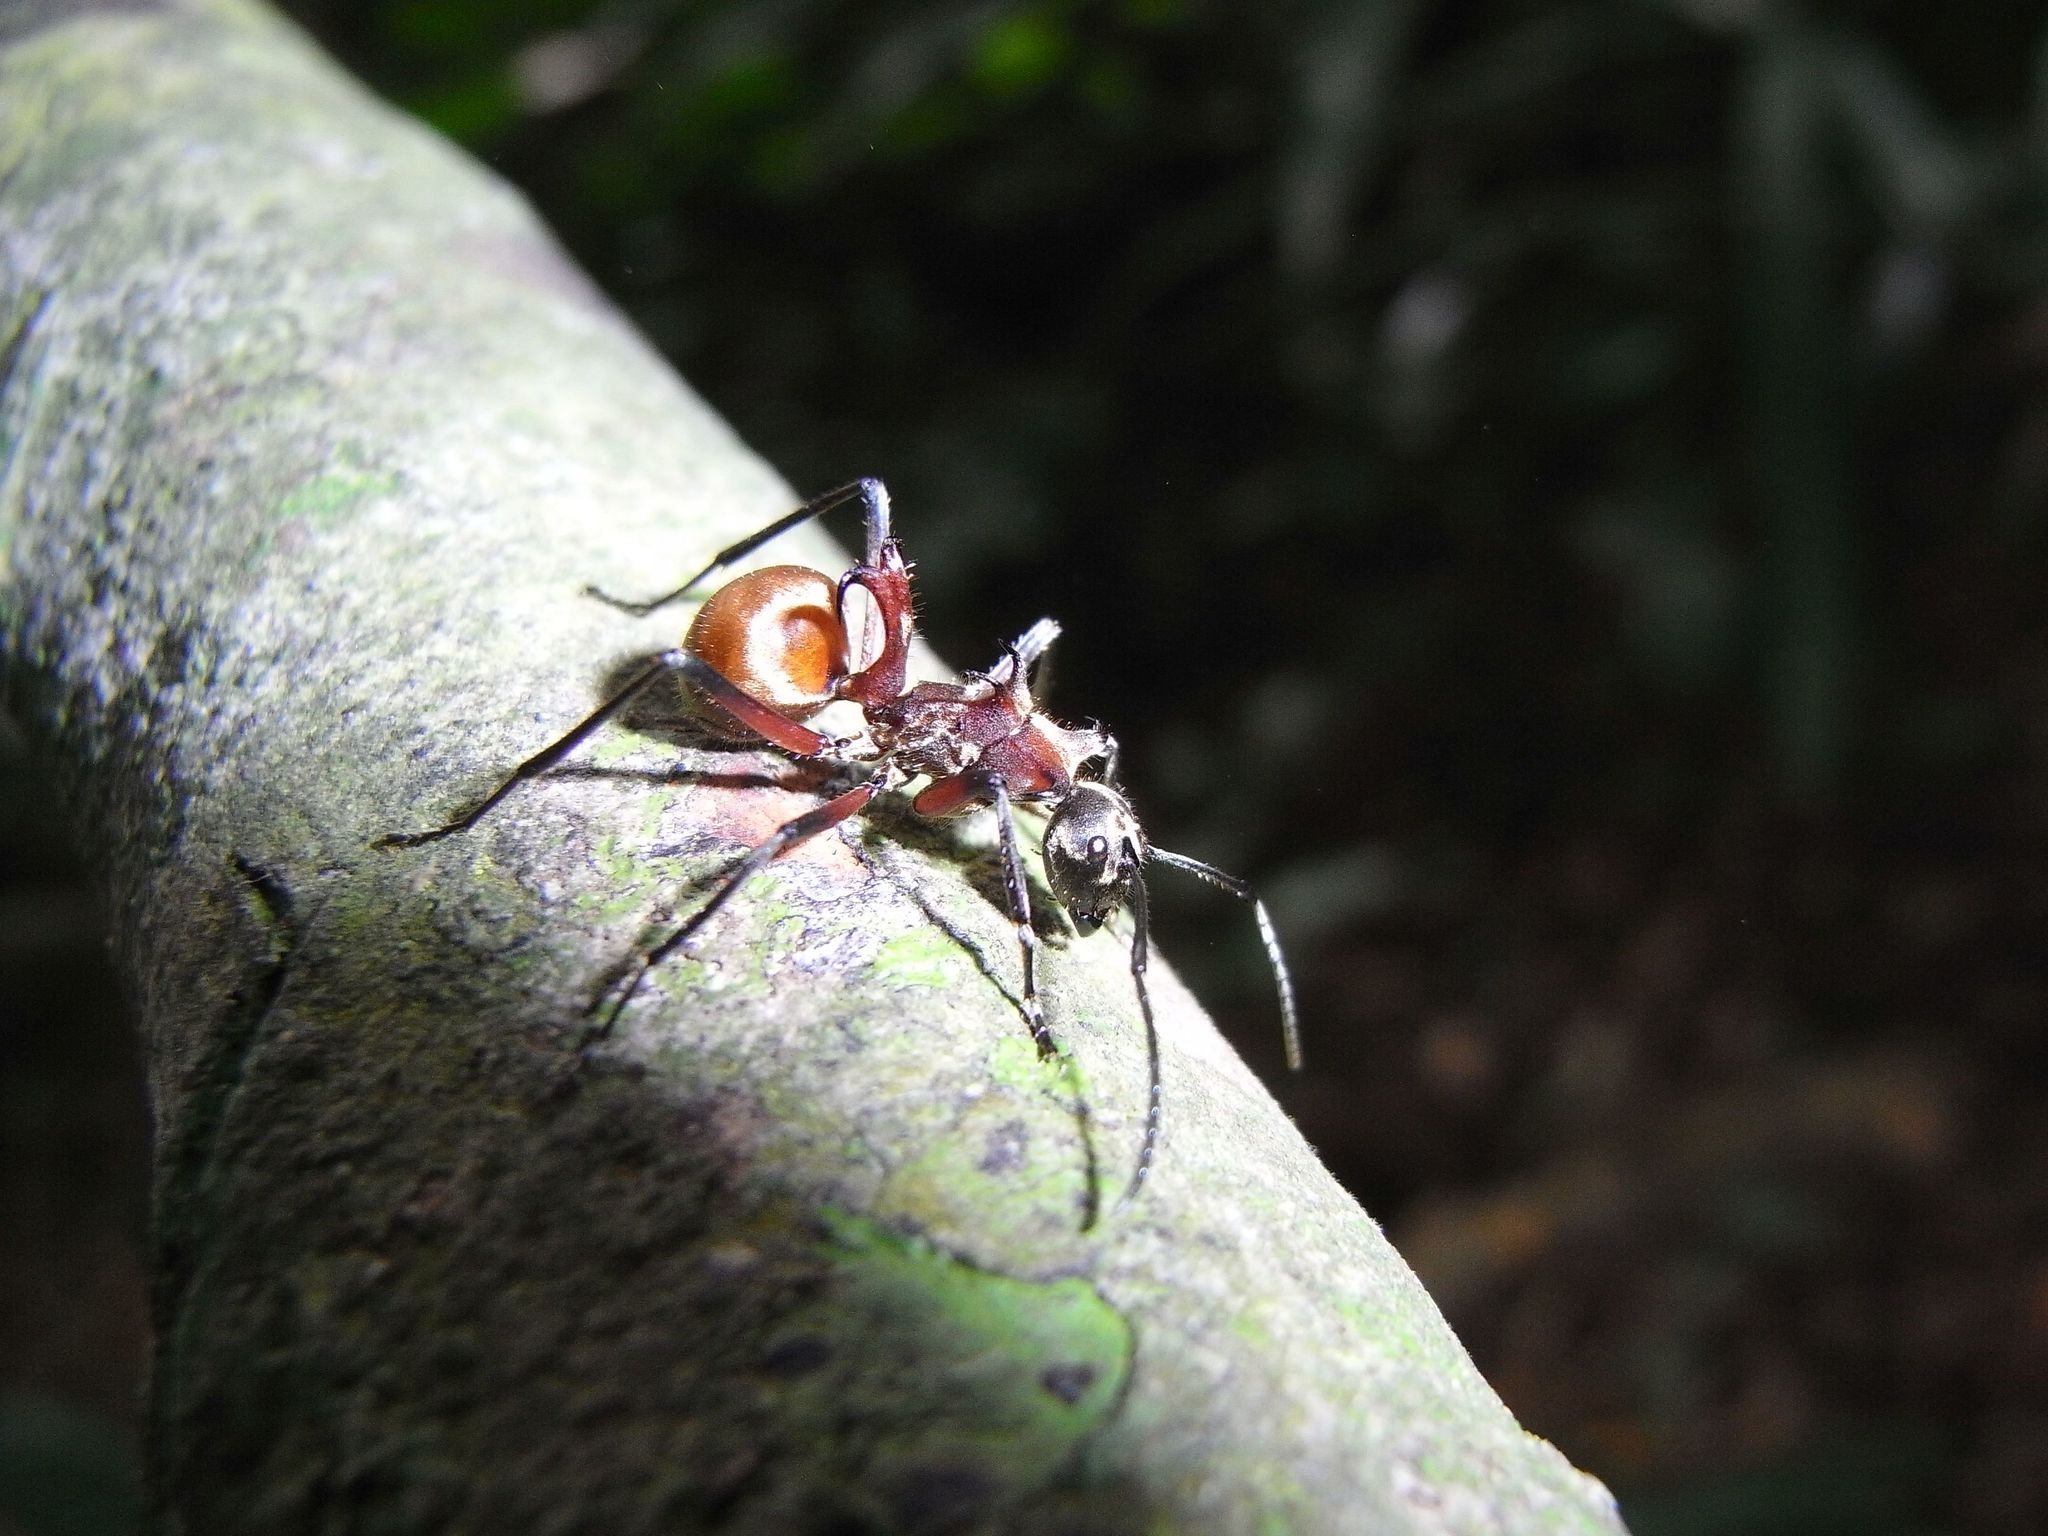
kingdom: Animalia
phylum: Arthropoda
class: Insecta
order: Hymenoptera
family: Formicidae
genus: Polyrhachis
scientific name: Polyrhachis bihamata
